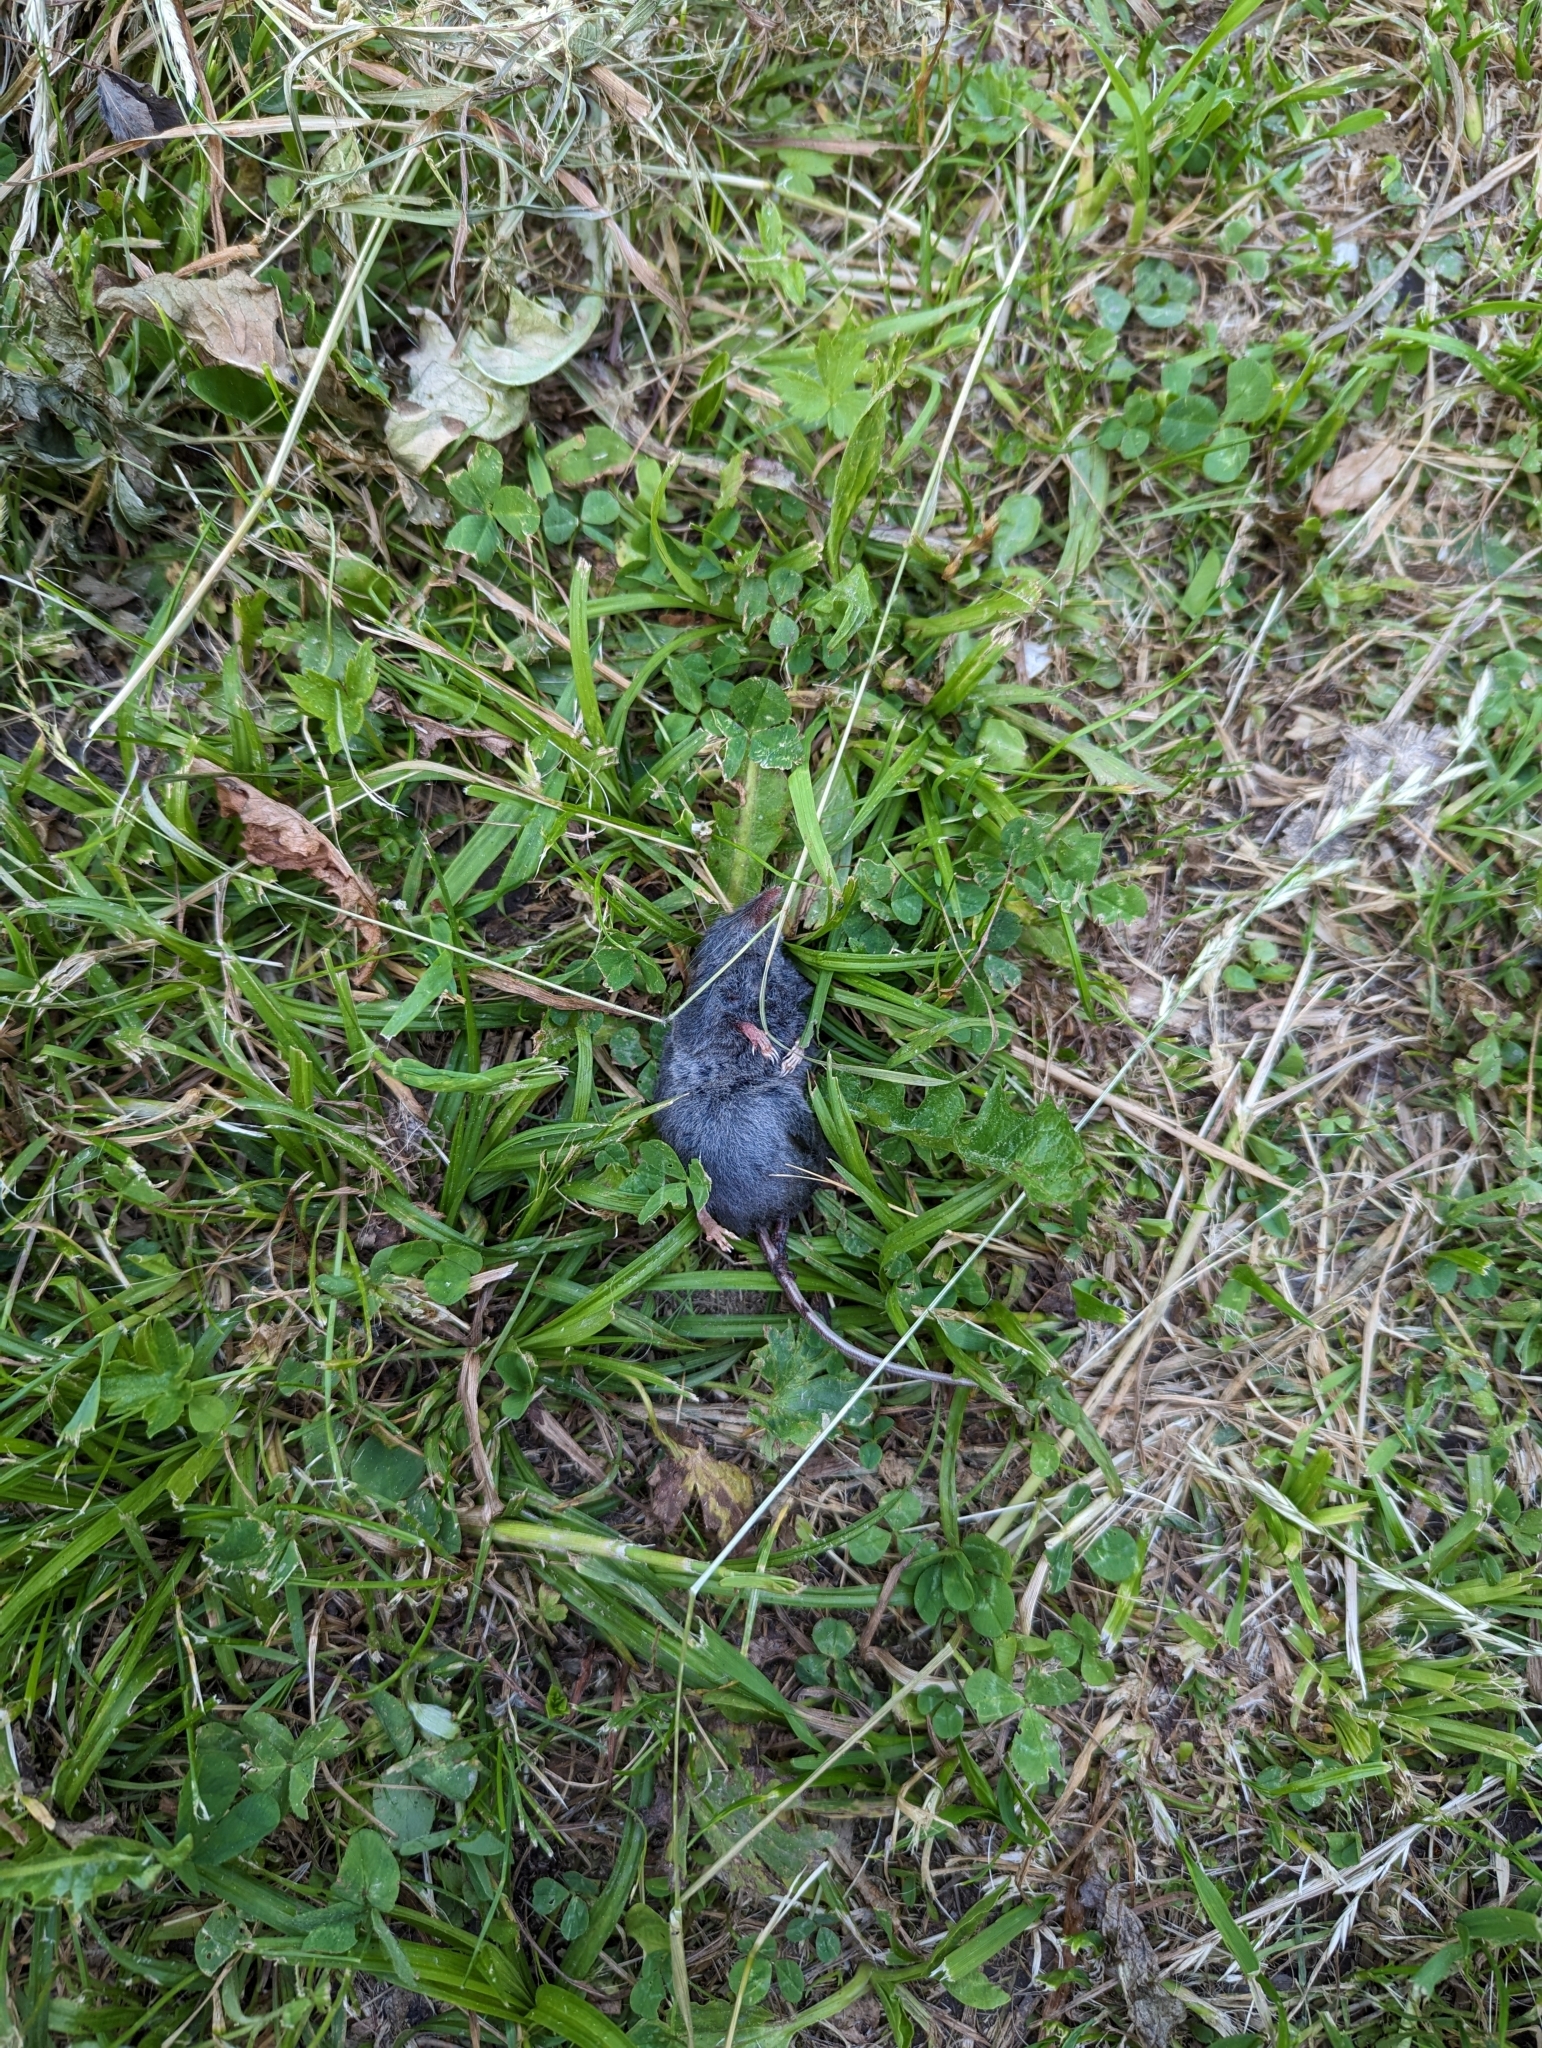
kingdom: Animalia
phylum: Chordata
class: Mammalia
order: Soricomorpha
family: Soricidae
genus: Sorex
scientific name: Sorex alpinus
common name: Alpine shrew
